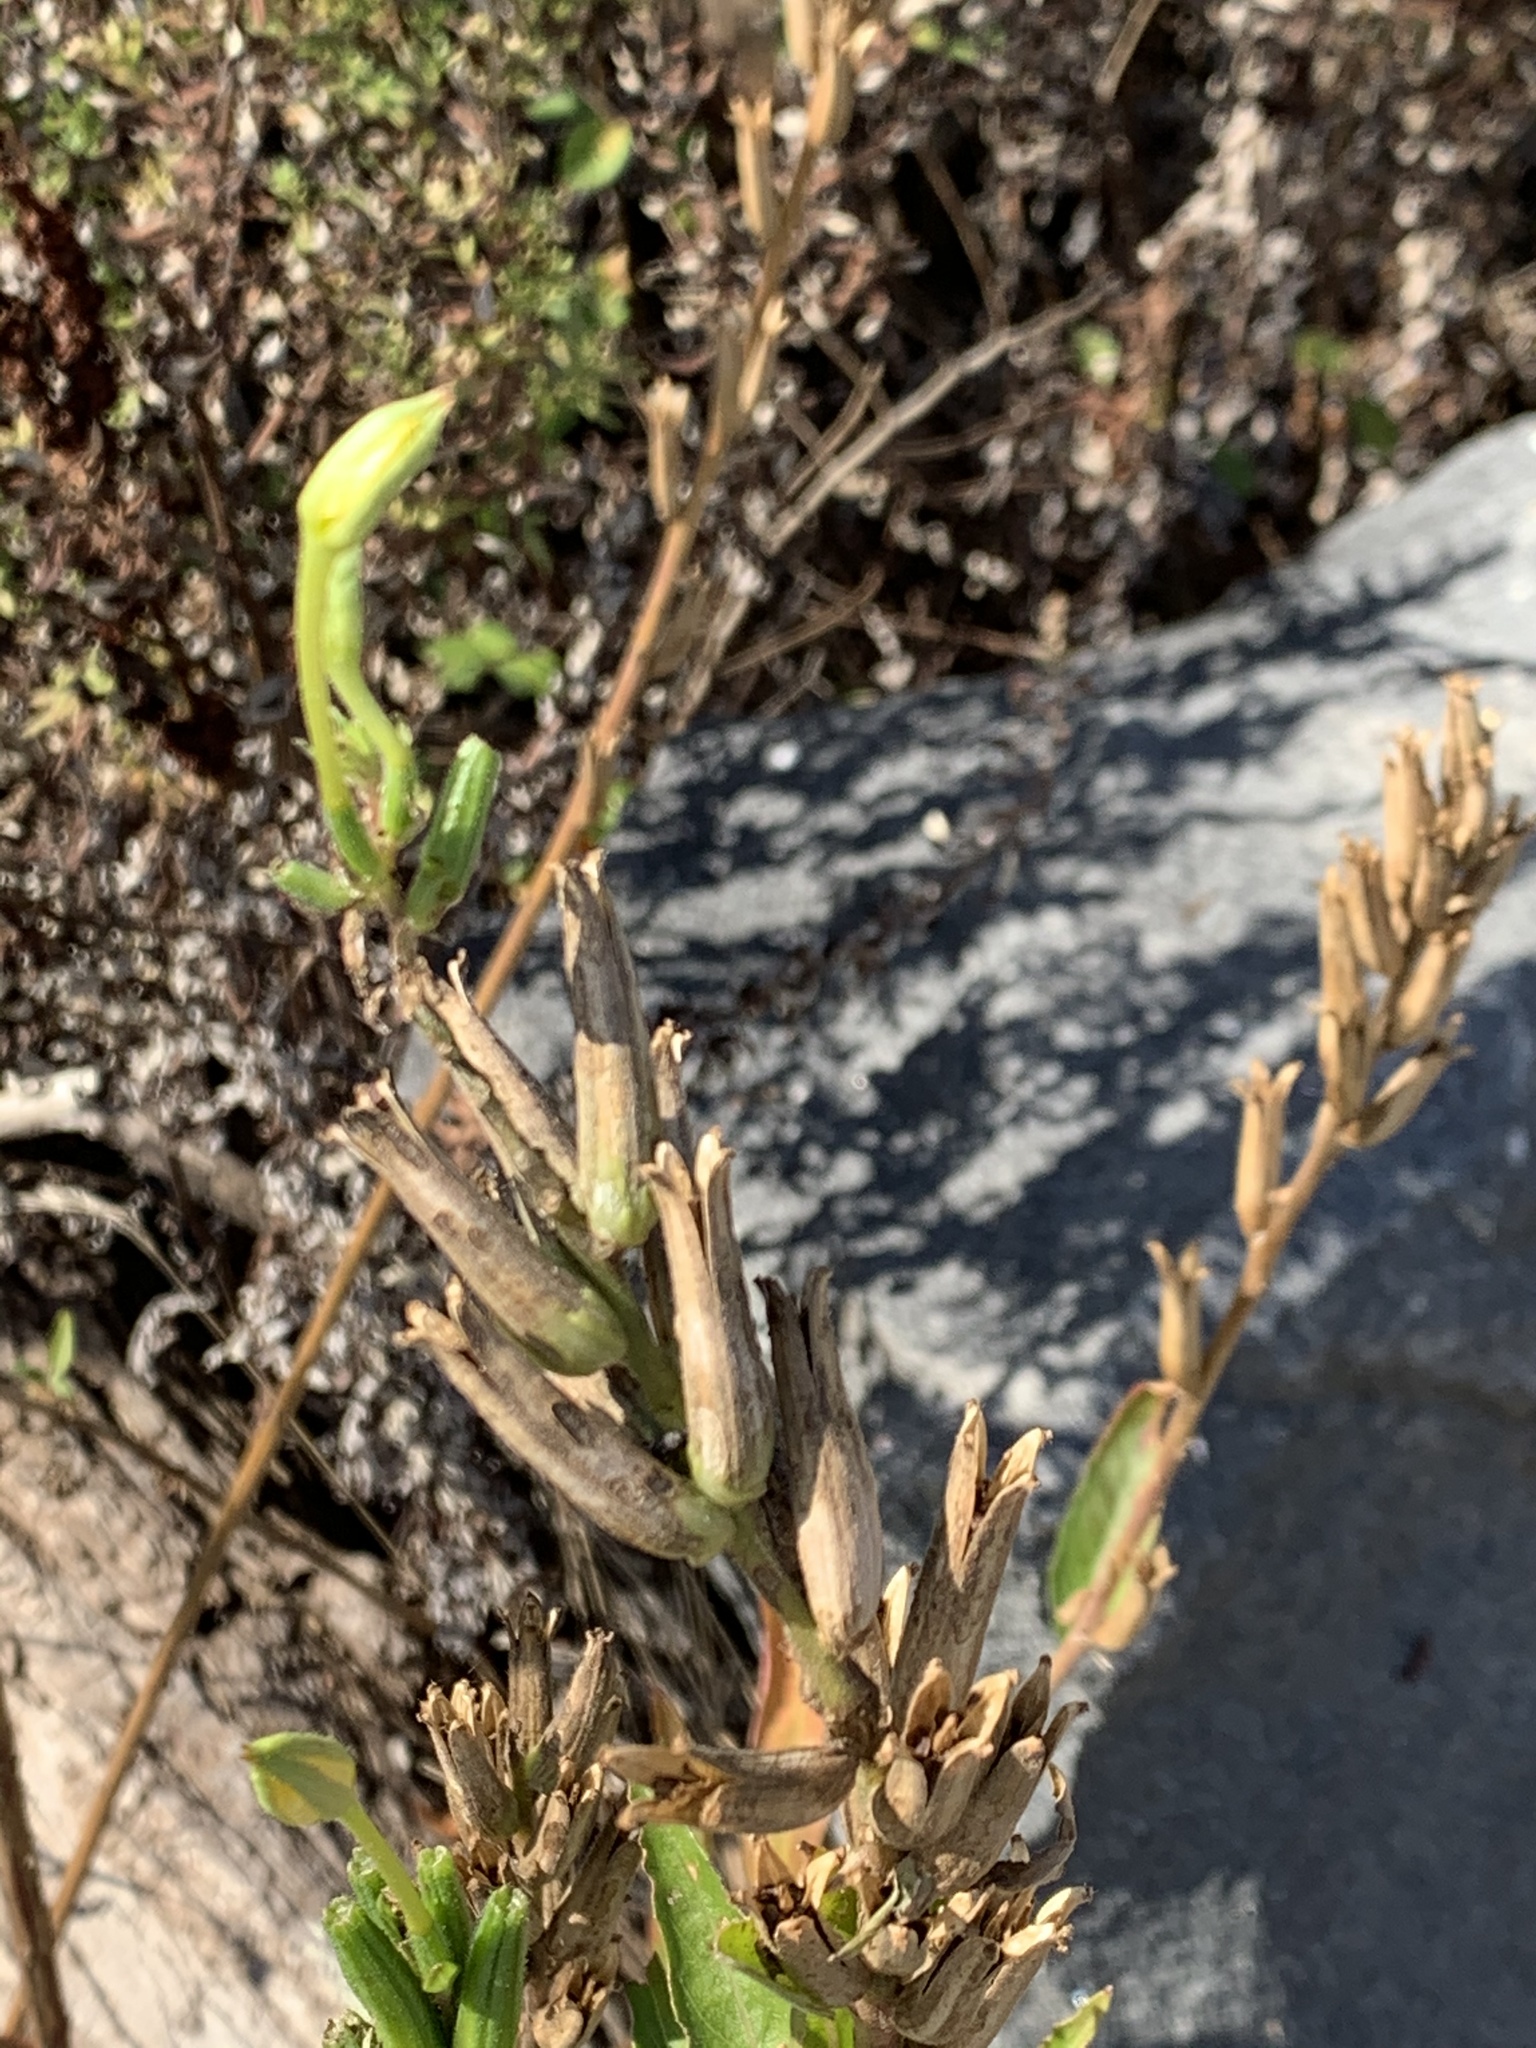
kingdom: Plantae
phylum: Tracheophyta
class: Magnoliopsida
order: Myrtales
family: Onagraceae
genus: Oenothera
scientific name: Oenothera biennis
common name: Common evening-primrose
